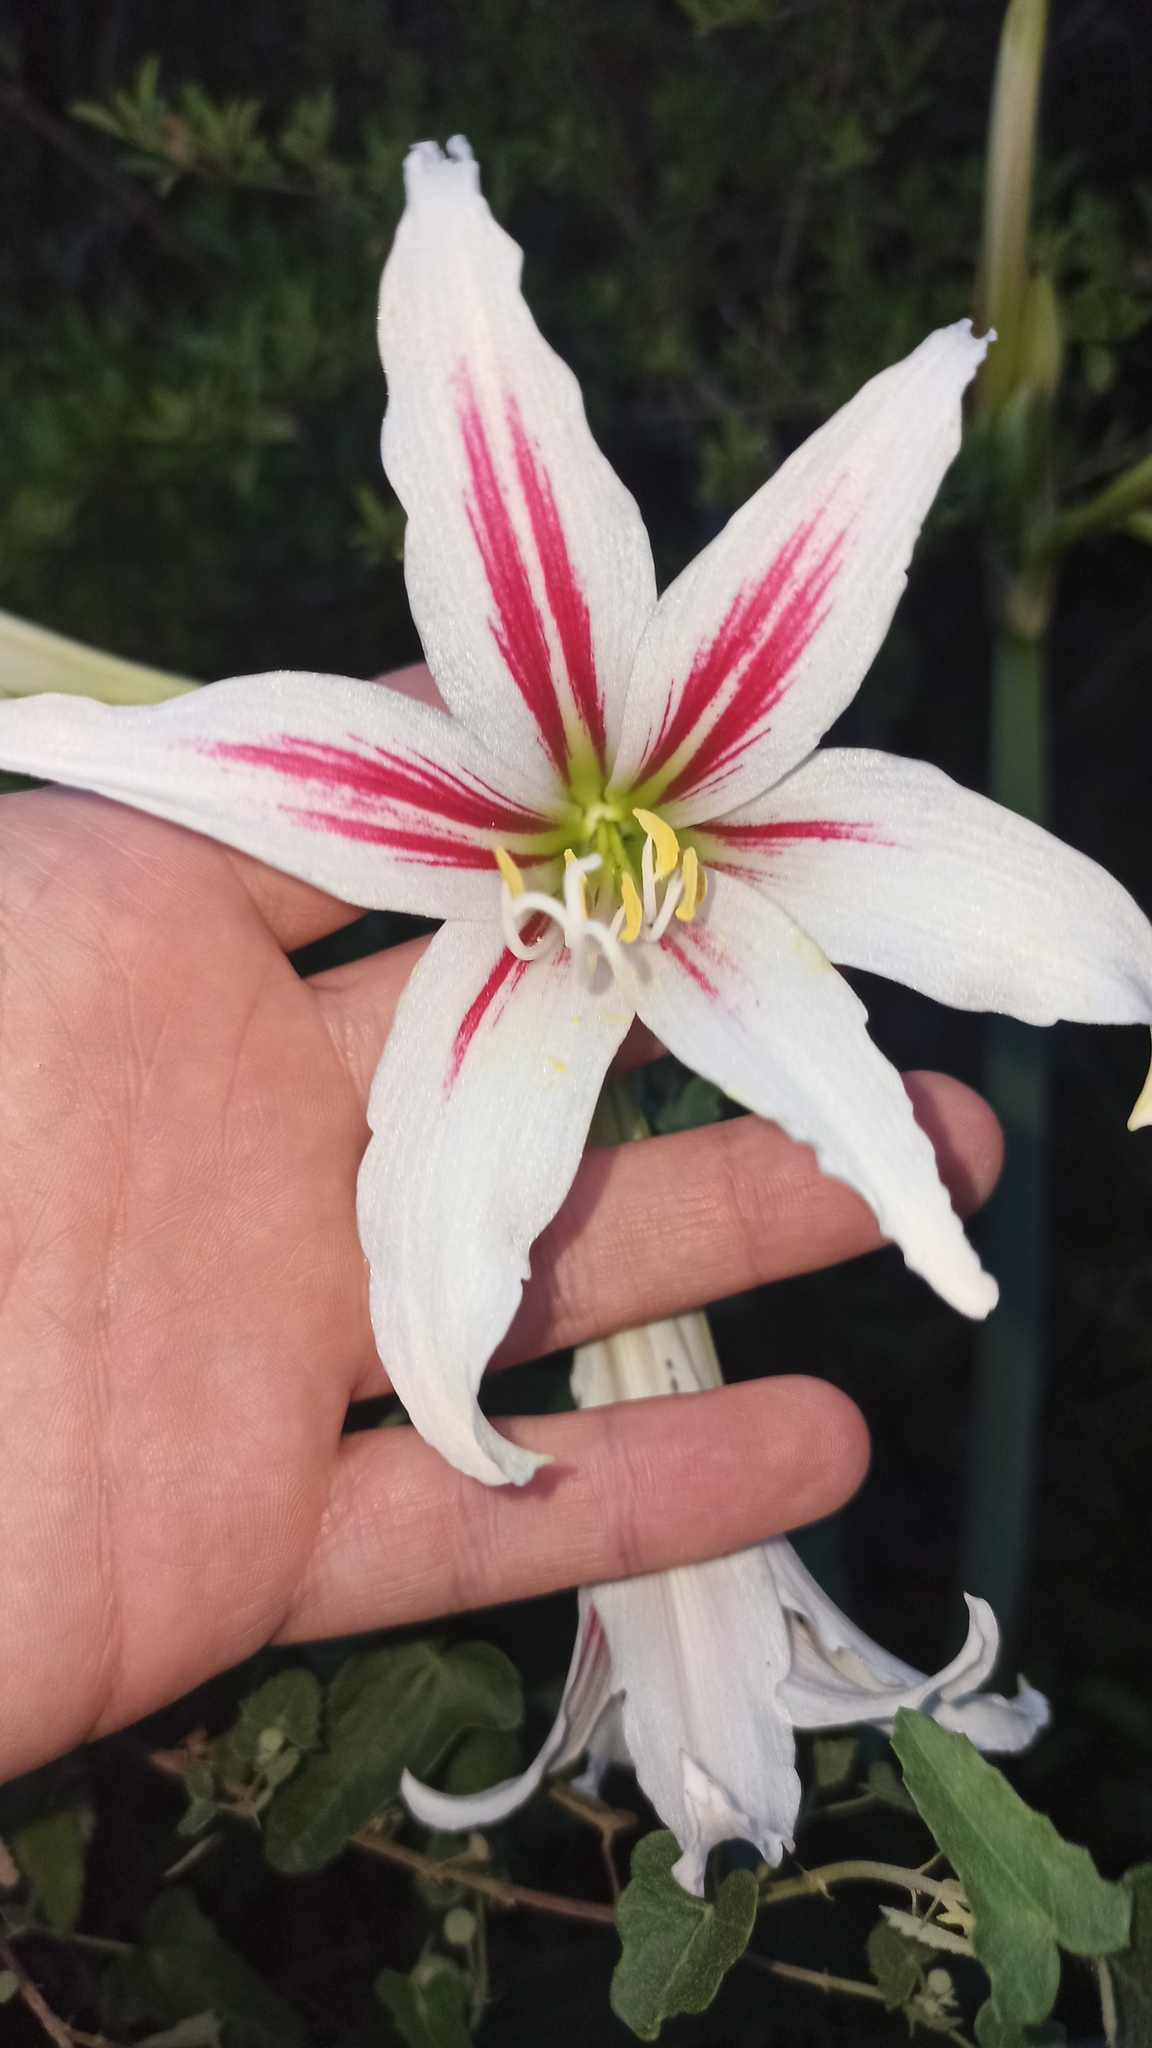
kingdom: Plantae
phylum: Tracheophyta
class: Liliopsida
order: Asparagales
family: Amaryllidaceae
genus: Hippeastrum
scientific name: Hippeastrum vittatum
